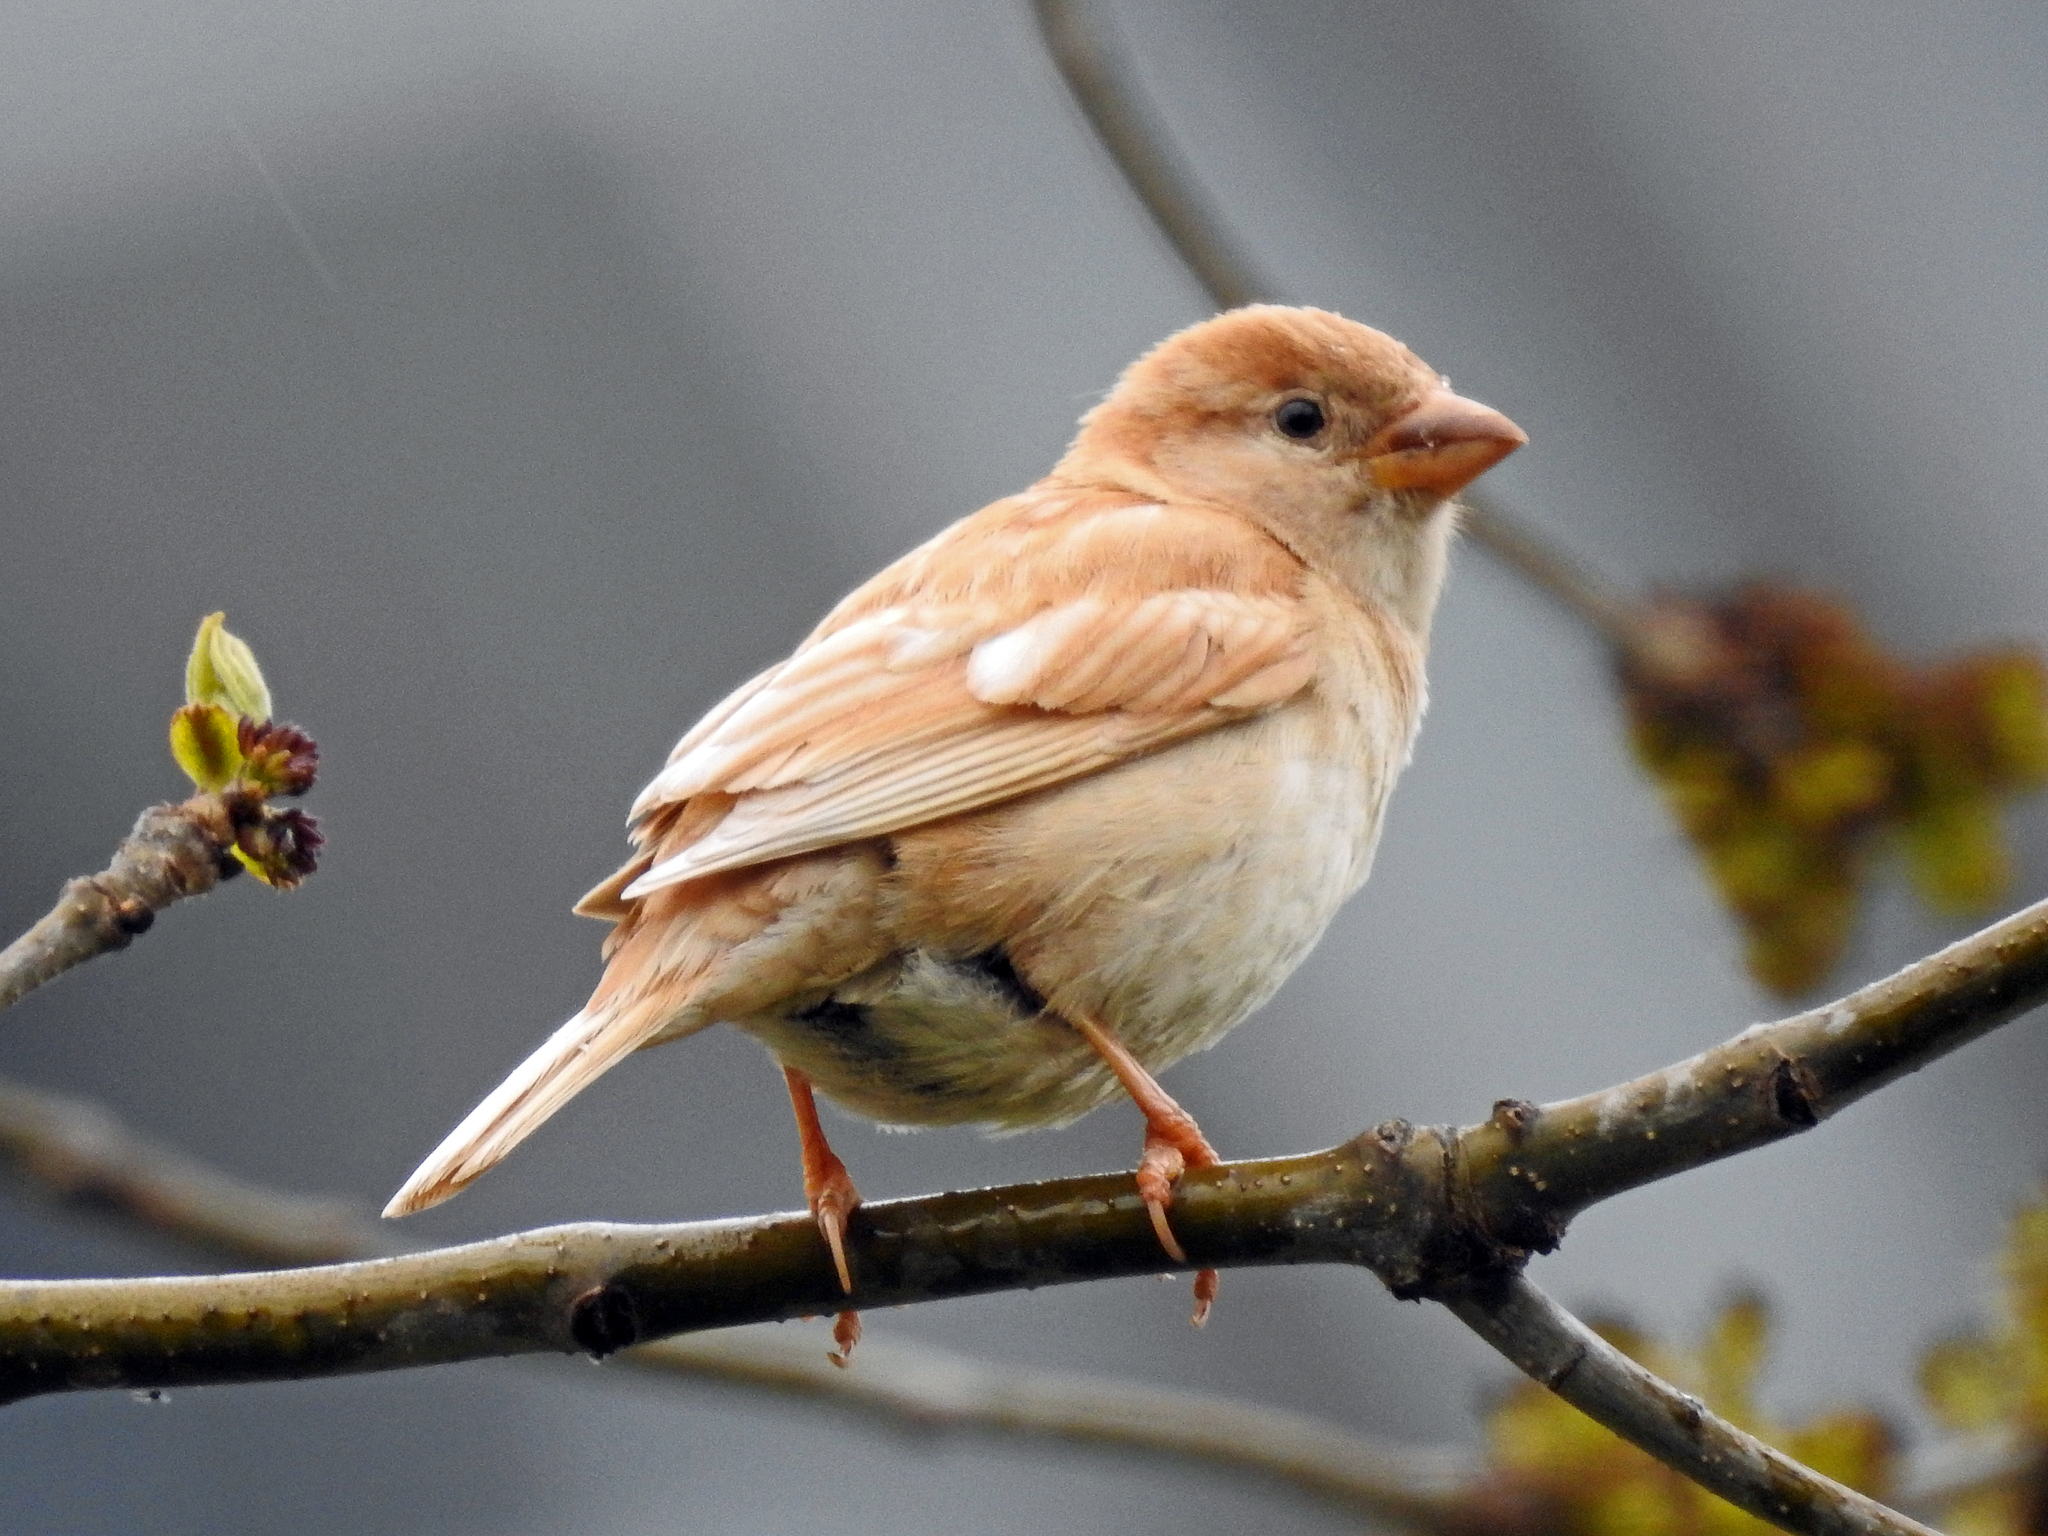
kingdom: Animalia
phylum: Chordata
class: Aves
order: Passeriformes
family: Passeridae
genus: Passer
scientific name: Passer domesticus
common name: House sparrow
